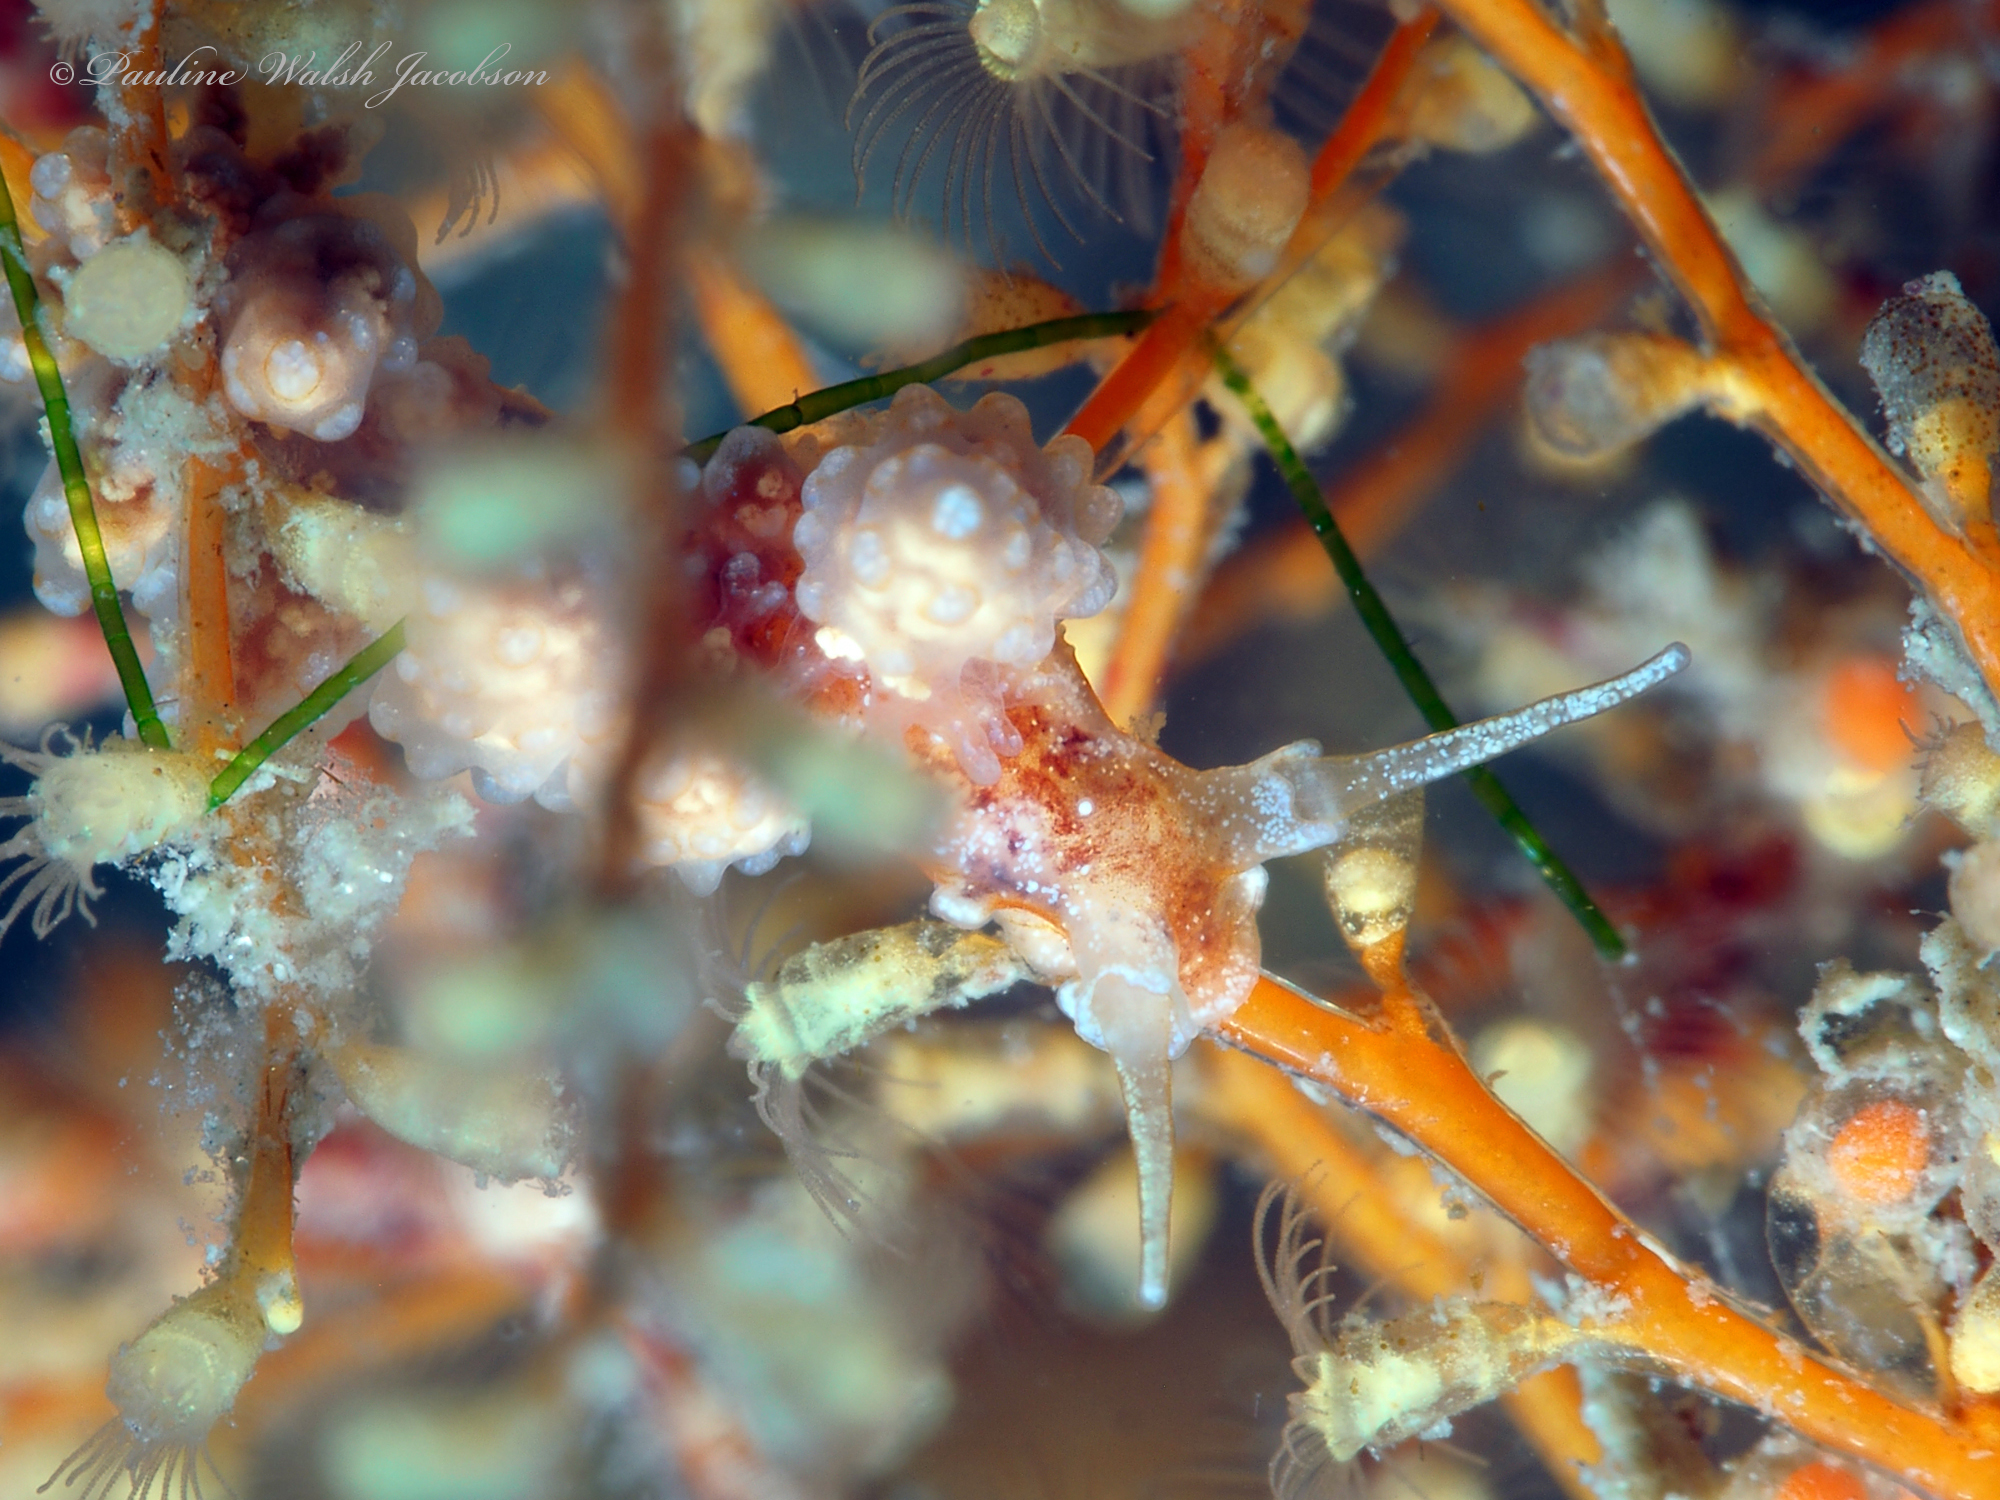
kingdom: Animalia
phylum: Mollusca
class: Gastropoda
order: Nudibranchia
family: Dotidae
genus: Doto
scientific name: Doto torrelavega
